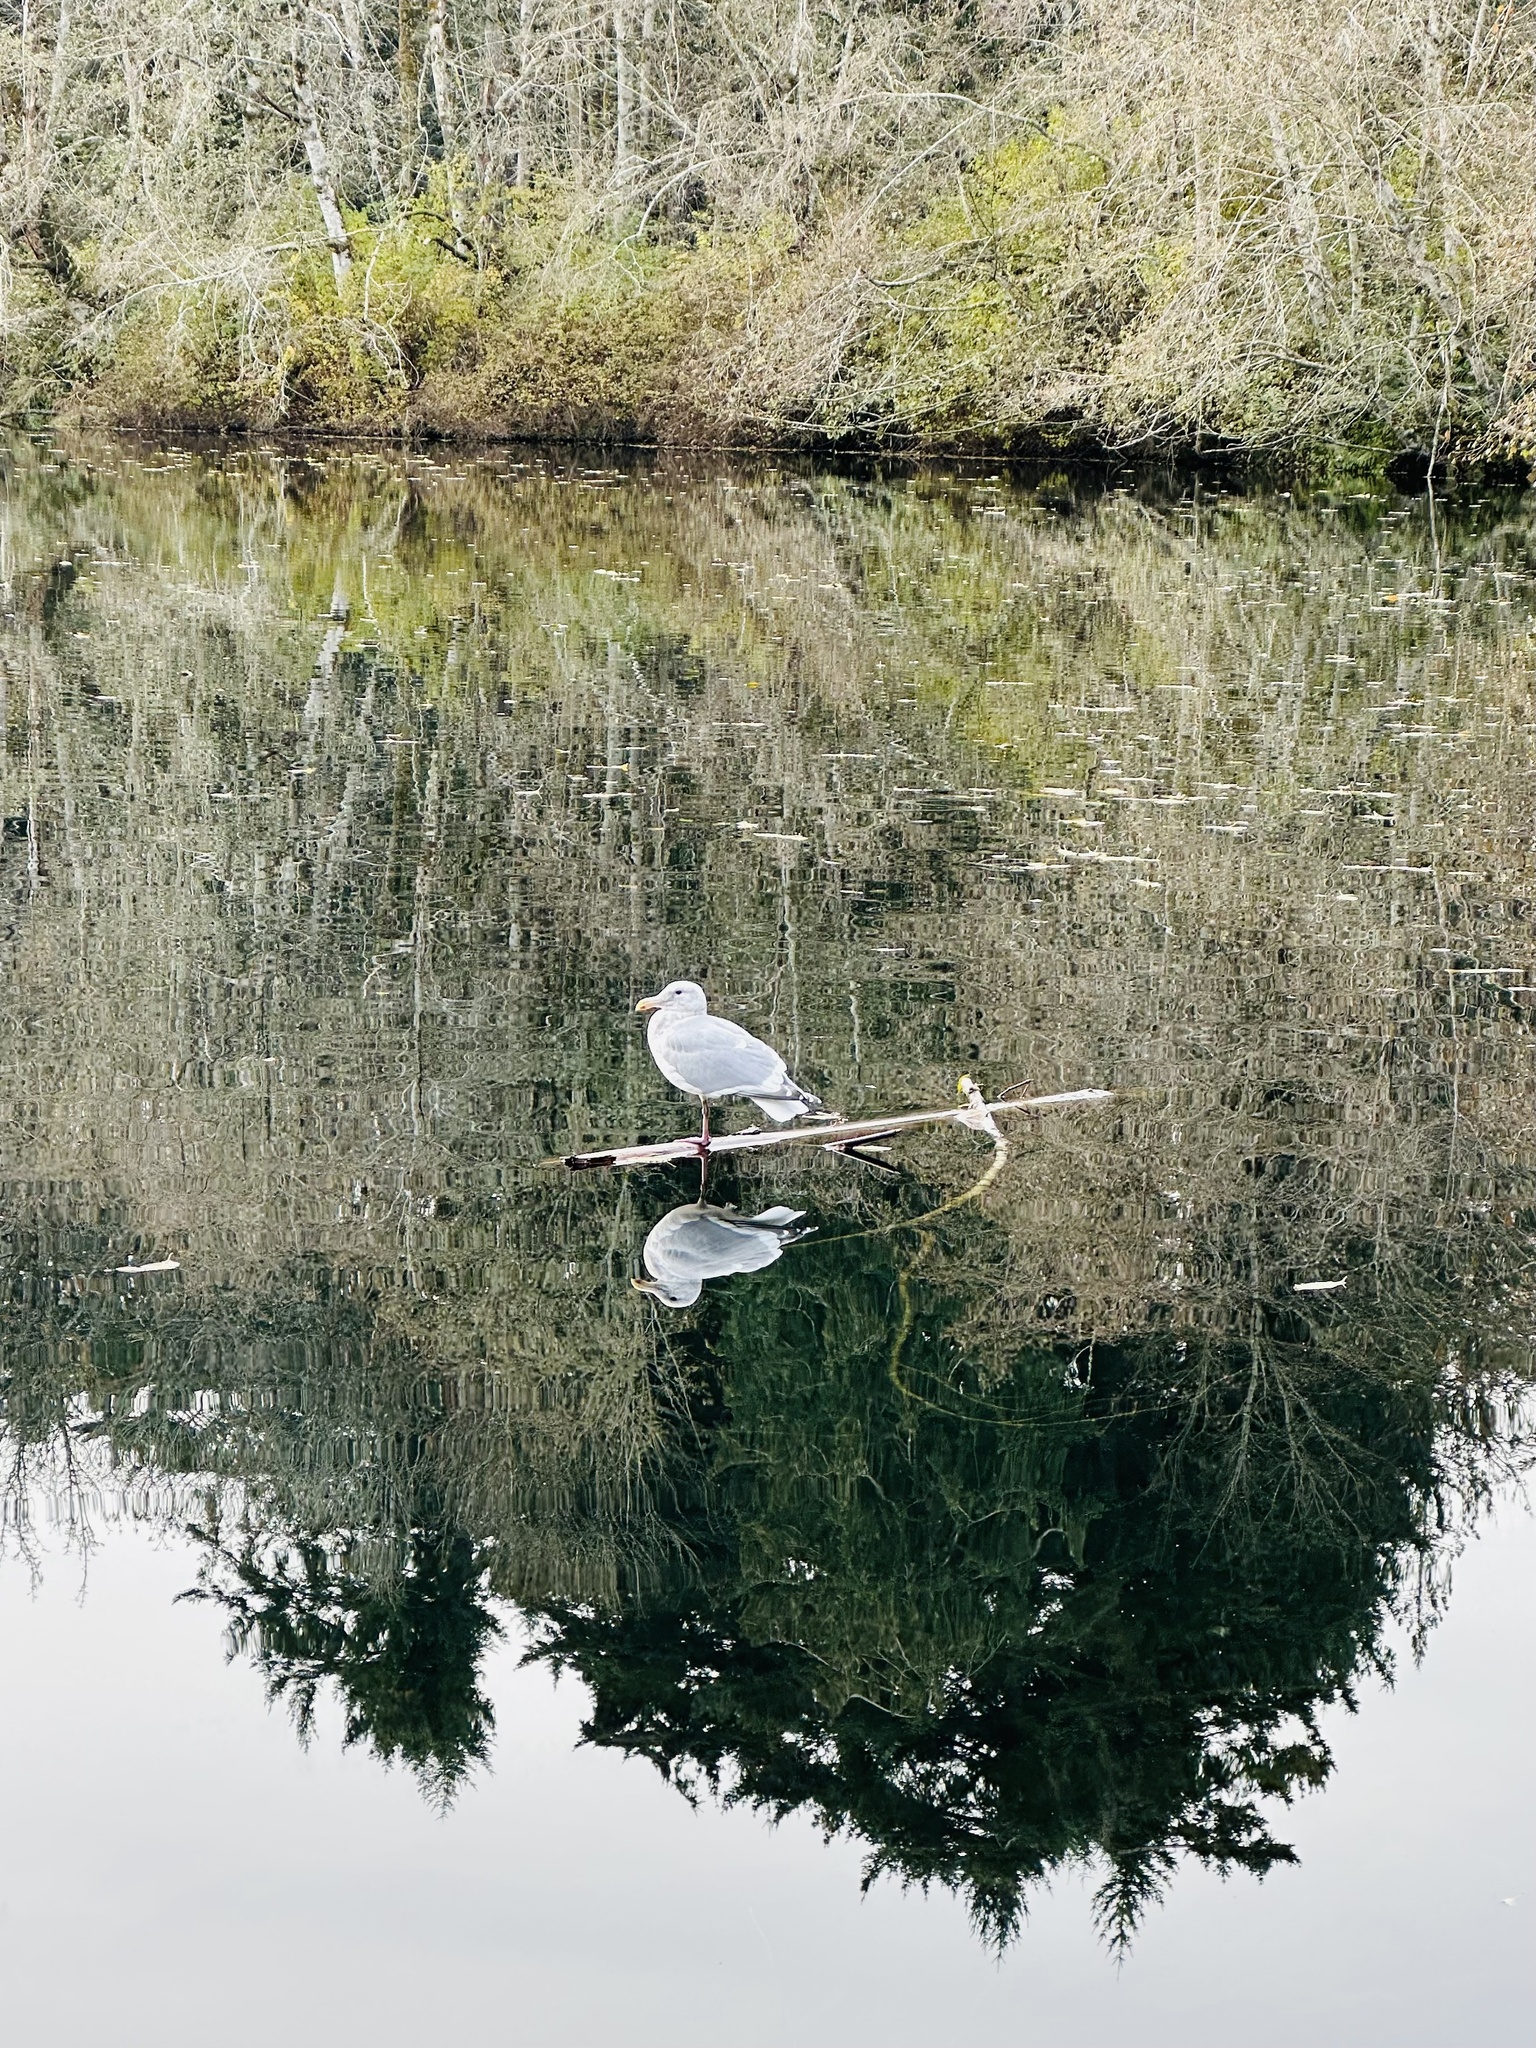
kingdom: Animalia
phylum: Chordata
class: Aves
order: Charadriiformes
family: Laridae
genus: Larus
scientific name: Larus glaucescens
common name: Glaucous-winged gull
